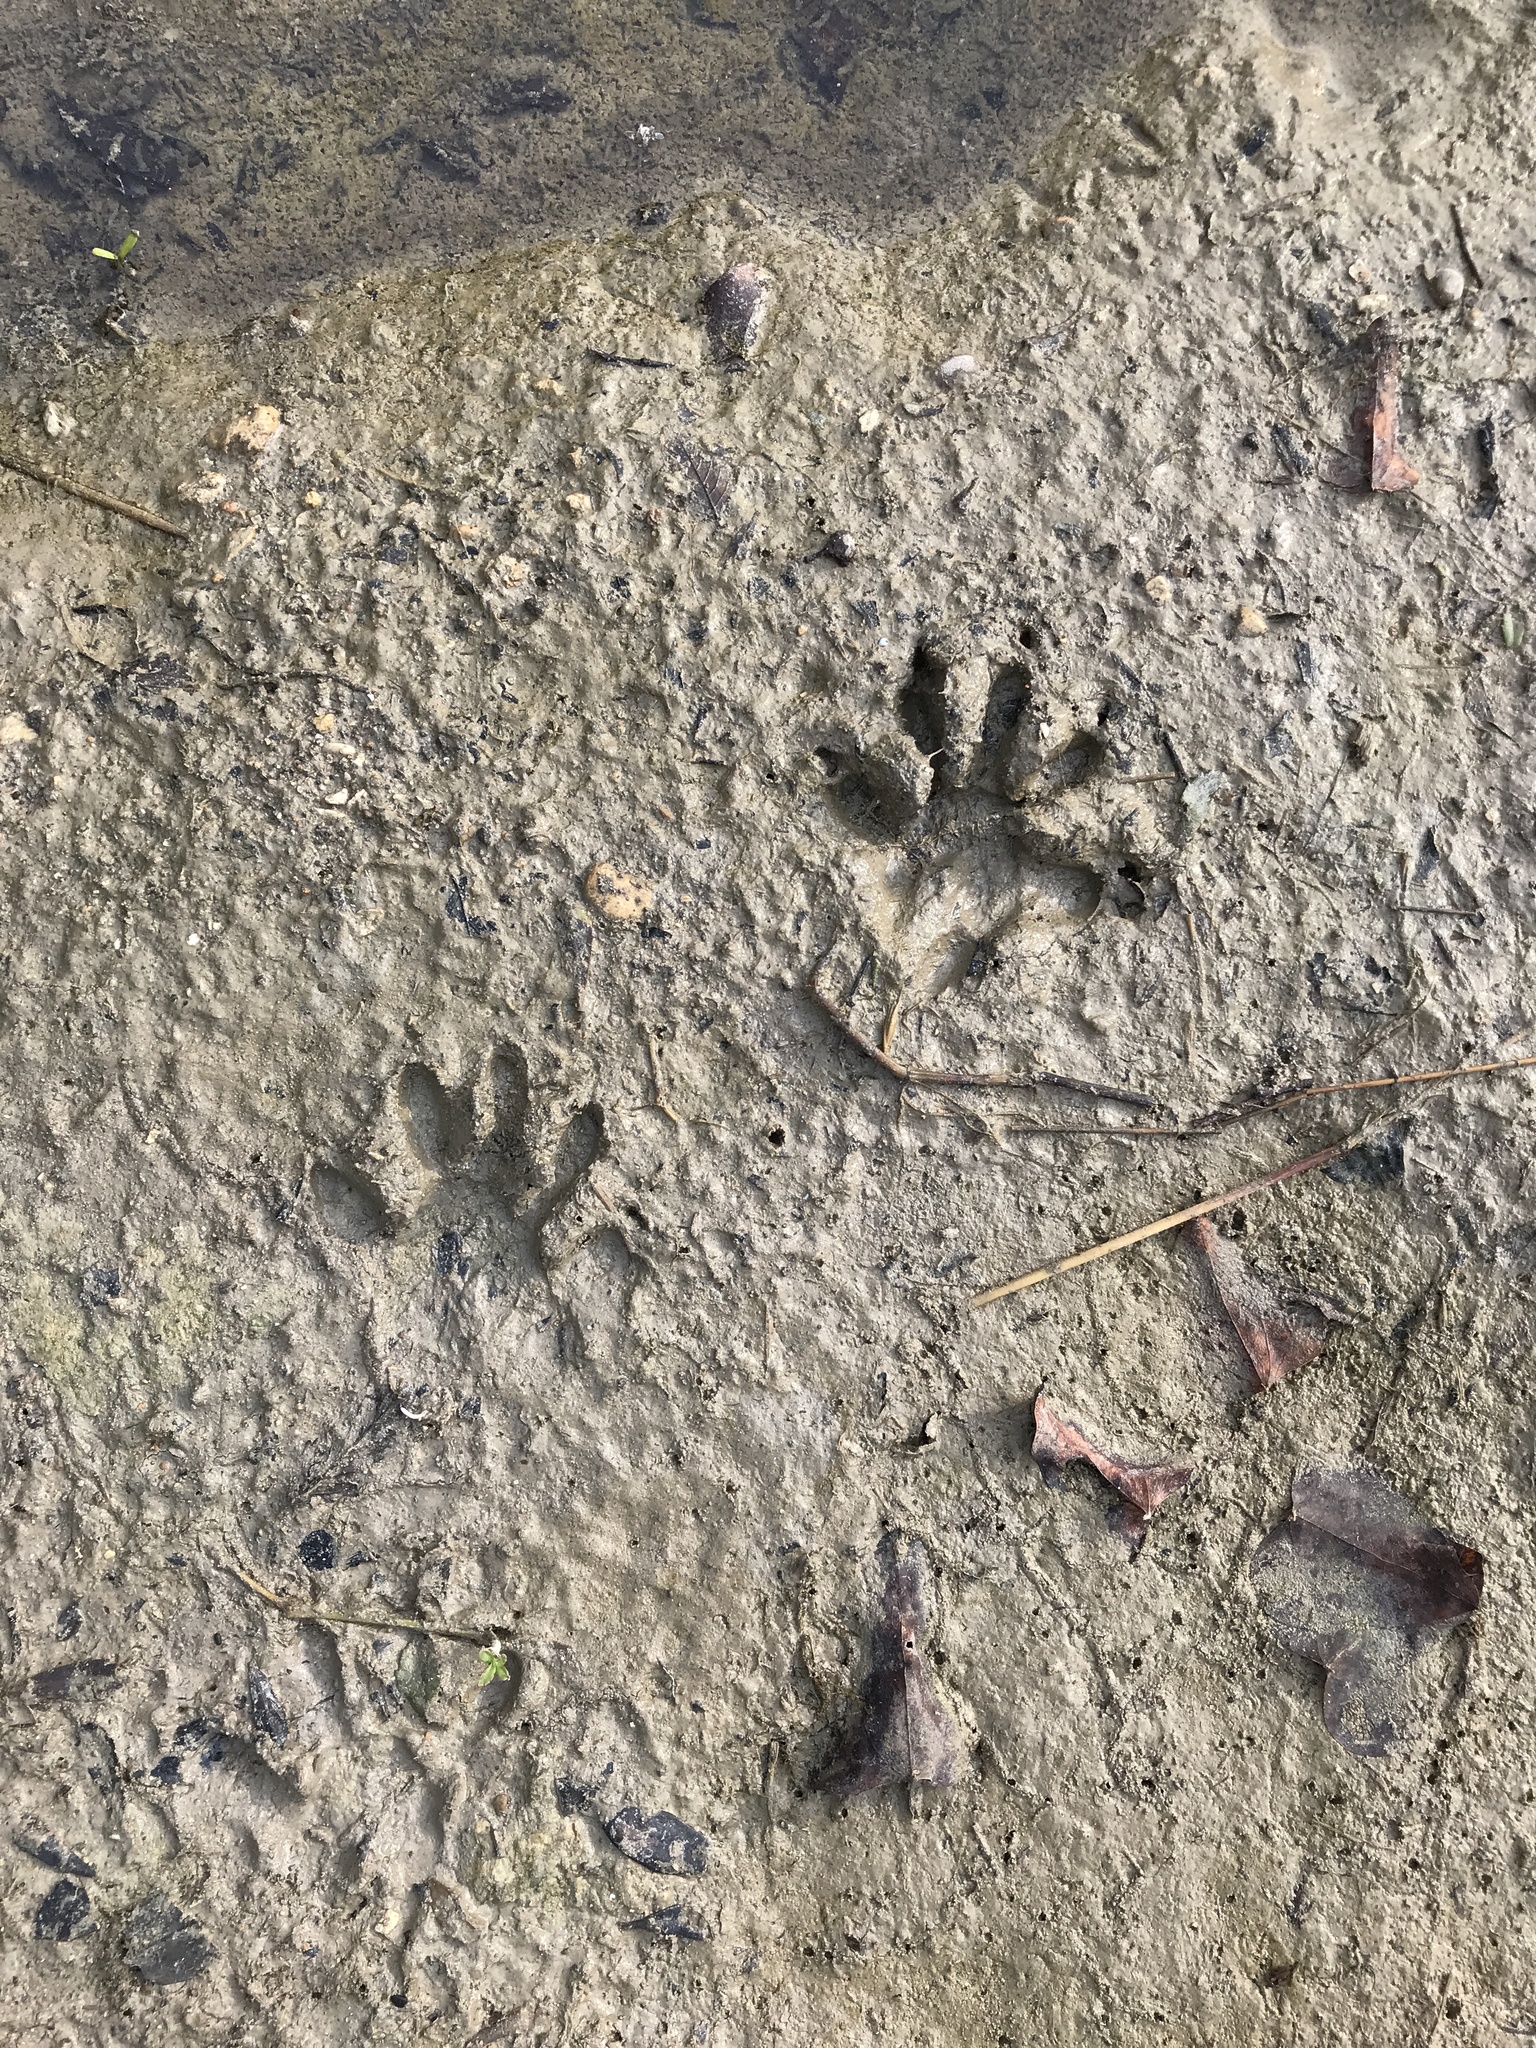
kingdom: Animalia
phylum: Chordata
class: Mammalia
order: Carnivora
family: Procyonidae
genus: Procyon
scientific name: Procyon lotor
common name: Raccoon
